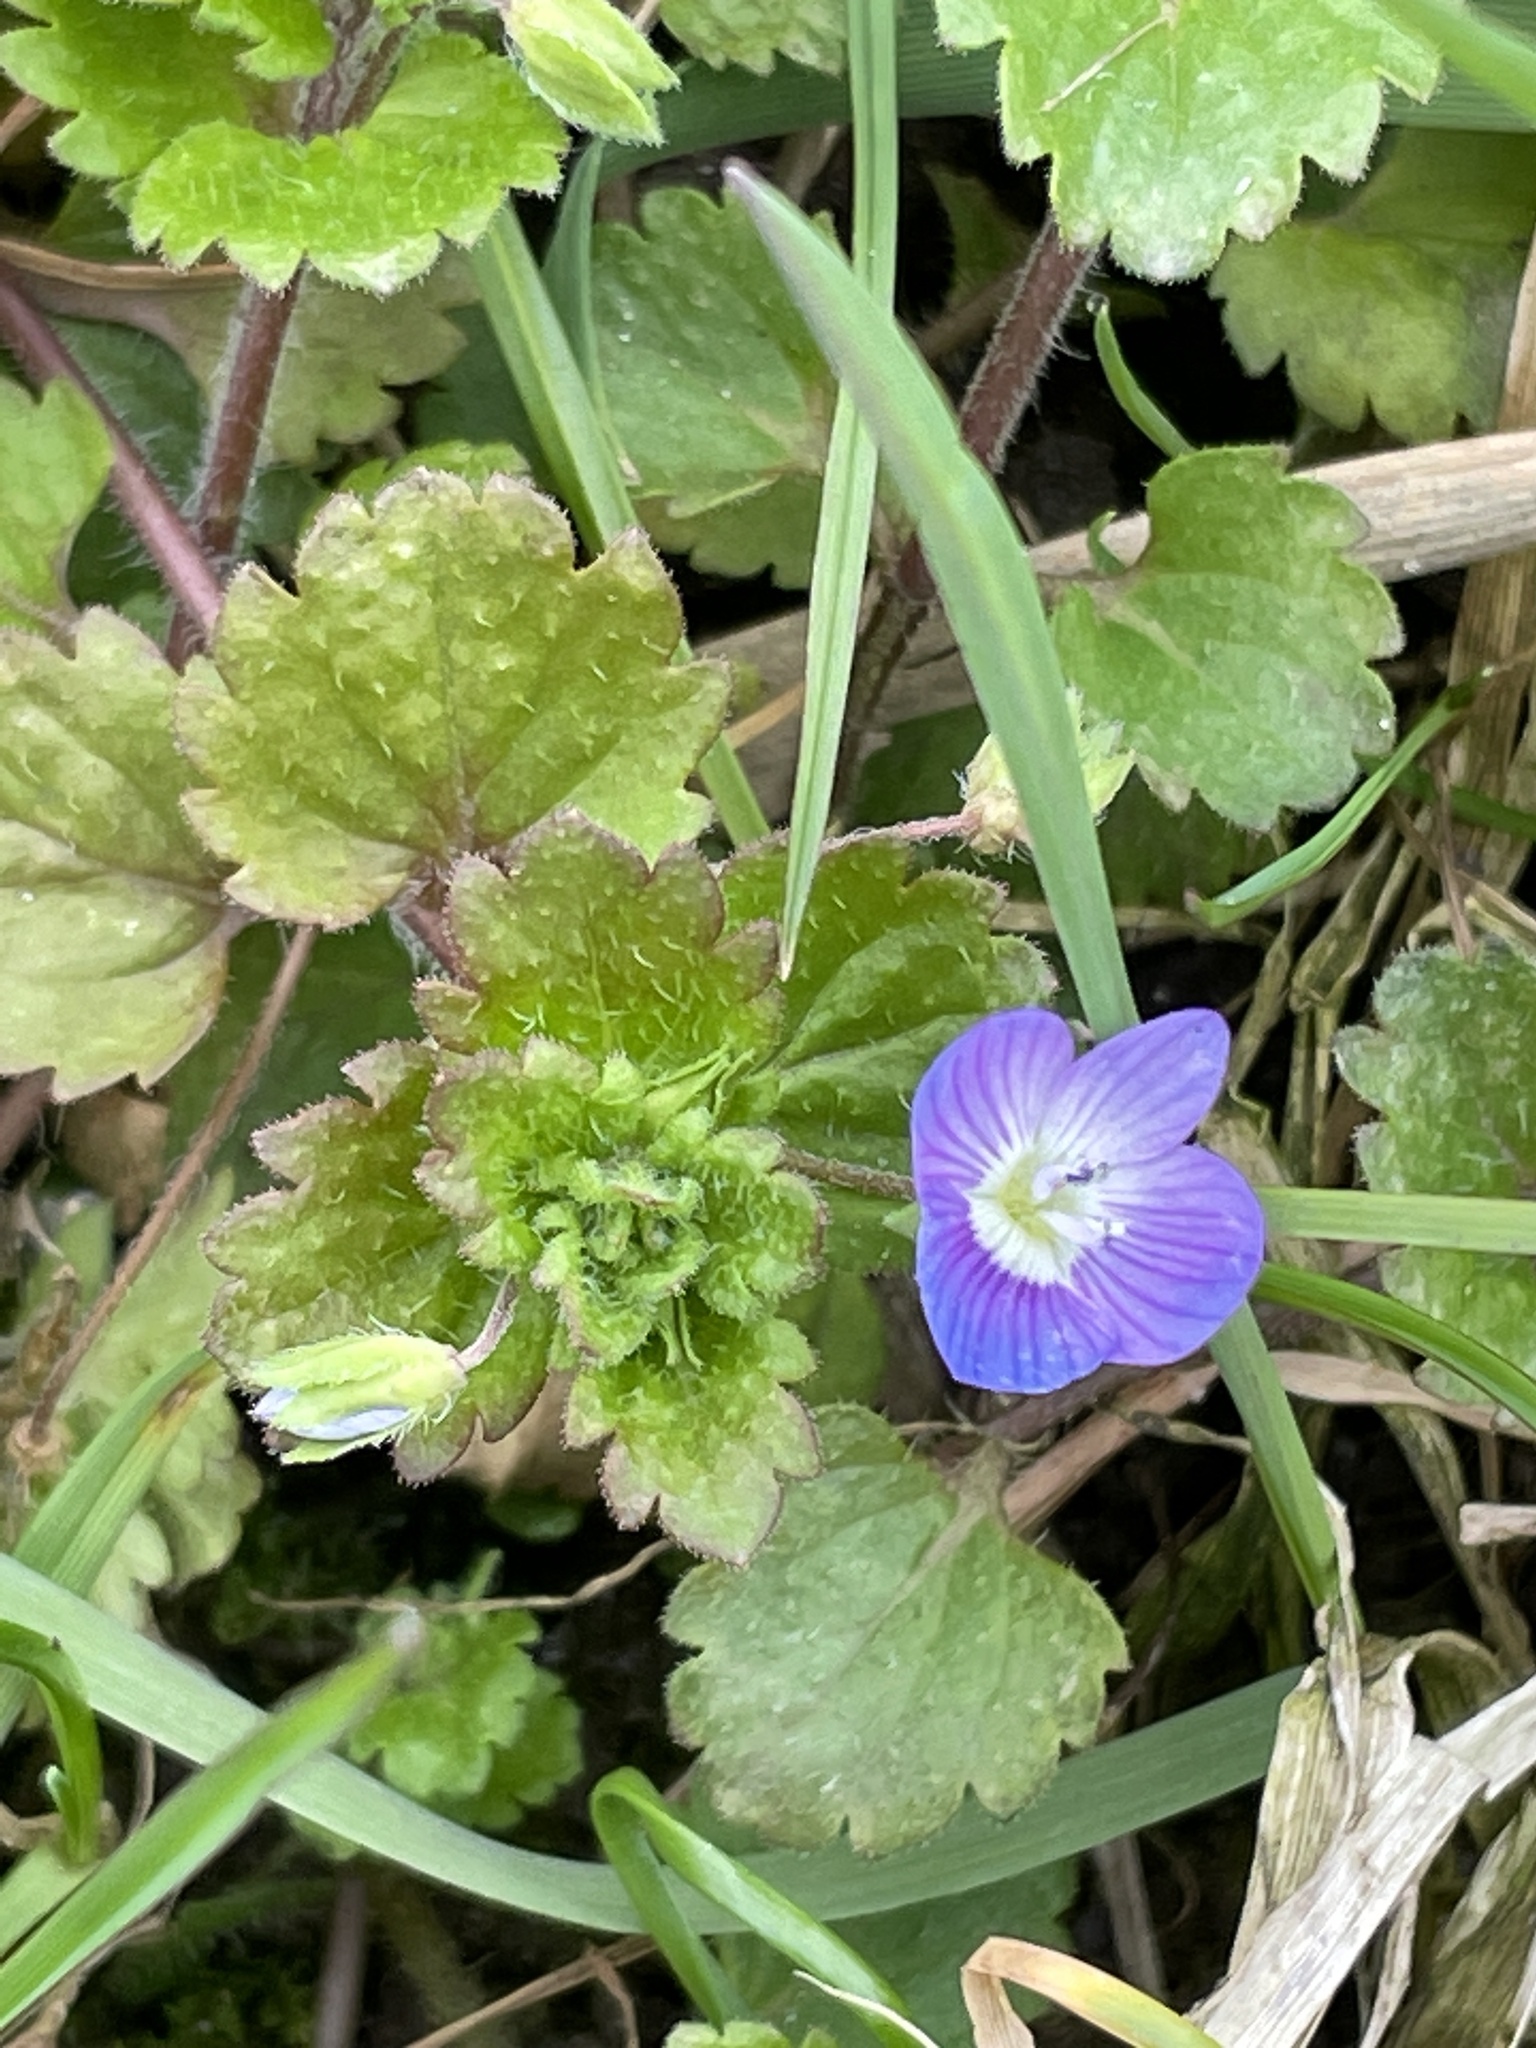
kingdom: Plantae
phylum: Tracheophyta
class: Magnoliopsida
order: Lamiales
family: Plantaginaceae
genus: Veronica
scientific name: Veronica persica
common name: Common field-speedwell
